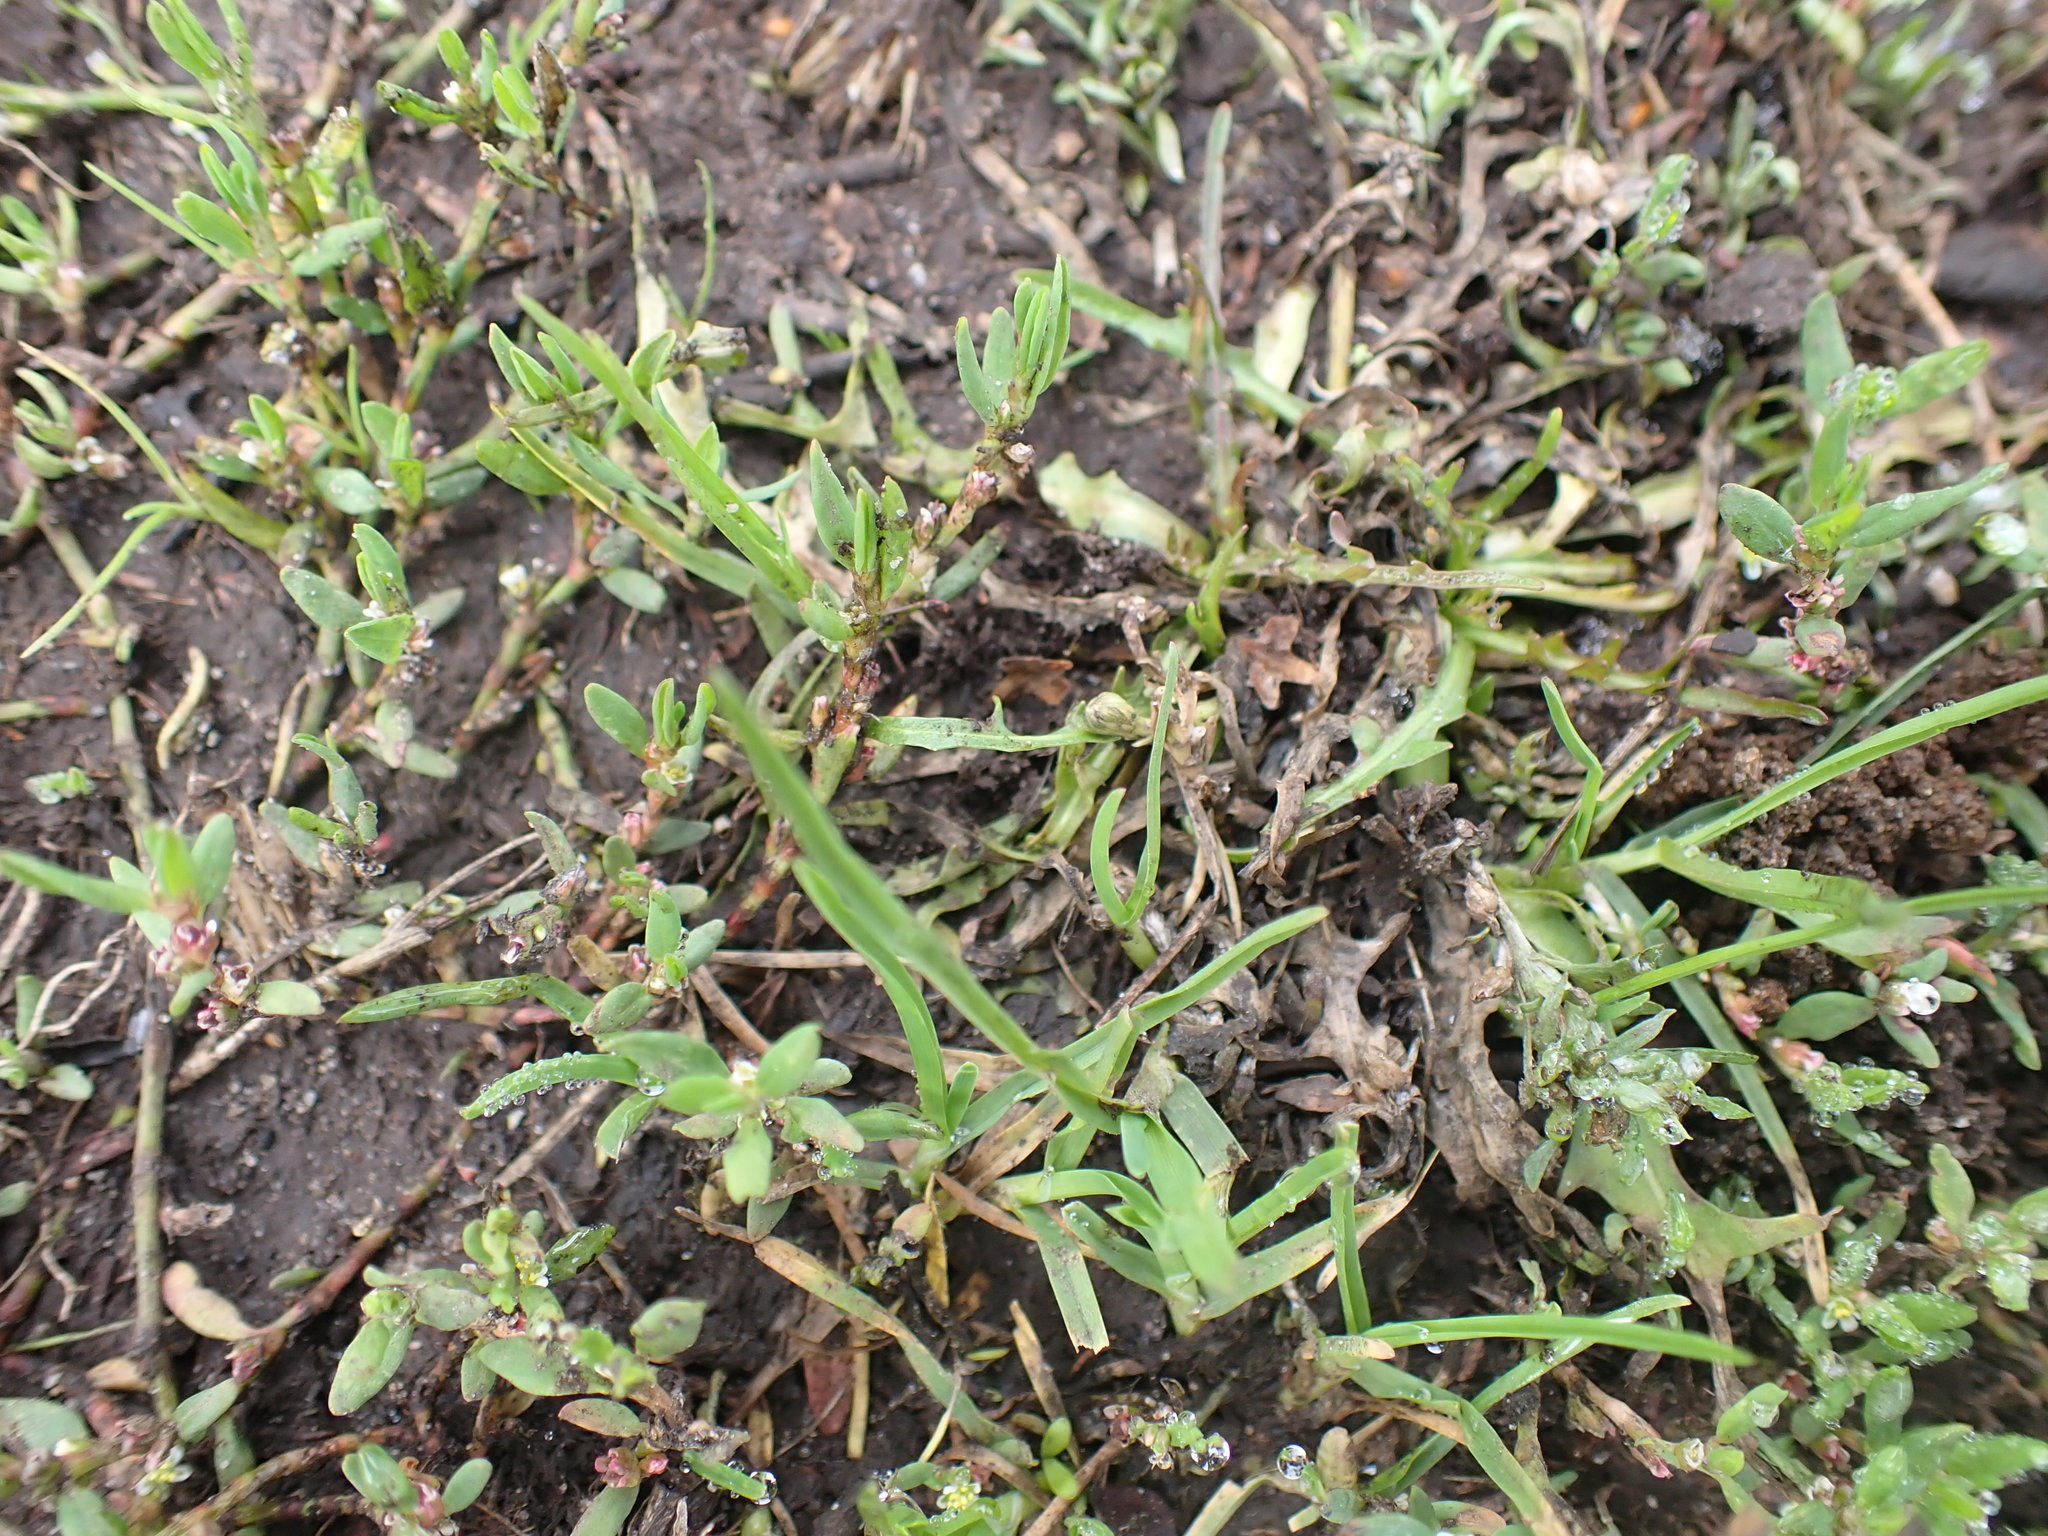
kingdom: Plantae
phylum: Tracheophyta
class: Magnoliopsida
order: Caryophyllales
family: Polygonaceae
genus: Polygonum
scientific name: Polygonum aviculare
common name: Prostrate knotweed
